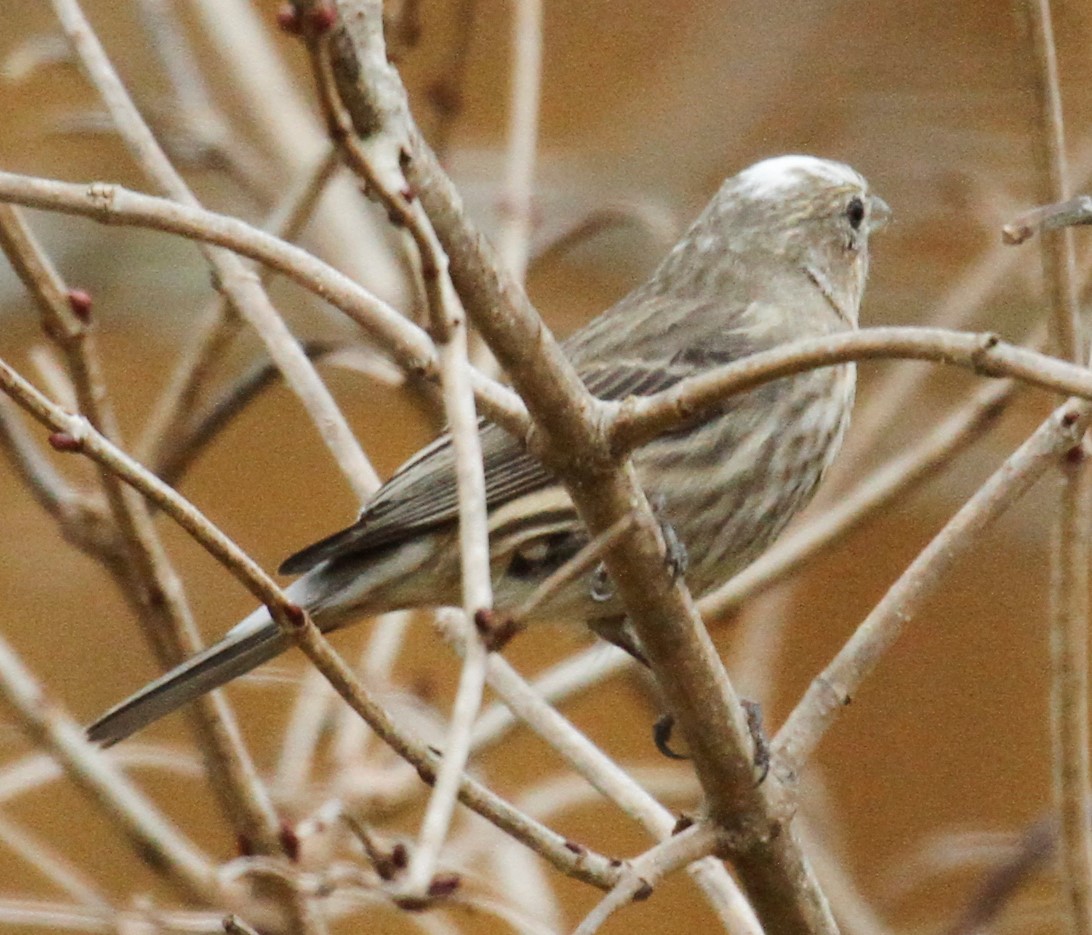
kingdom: Animalia
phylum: Chordata
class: Aves
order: Passeriformes
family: Fringillidae
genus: Spinus
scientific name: Spinus pinus
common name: Pine siskin
